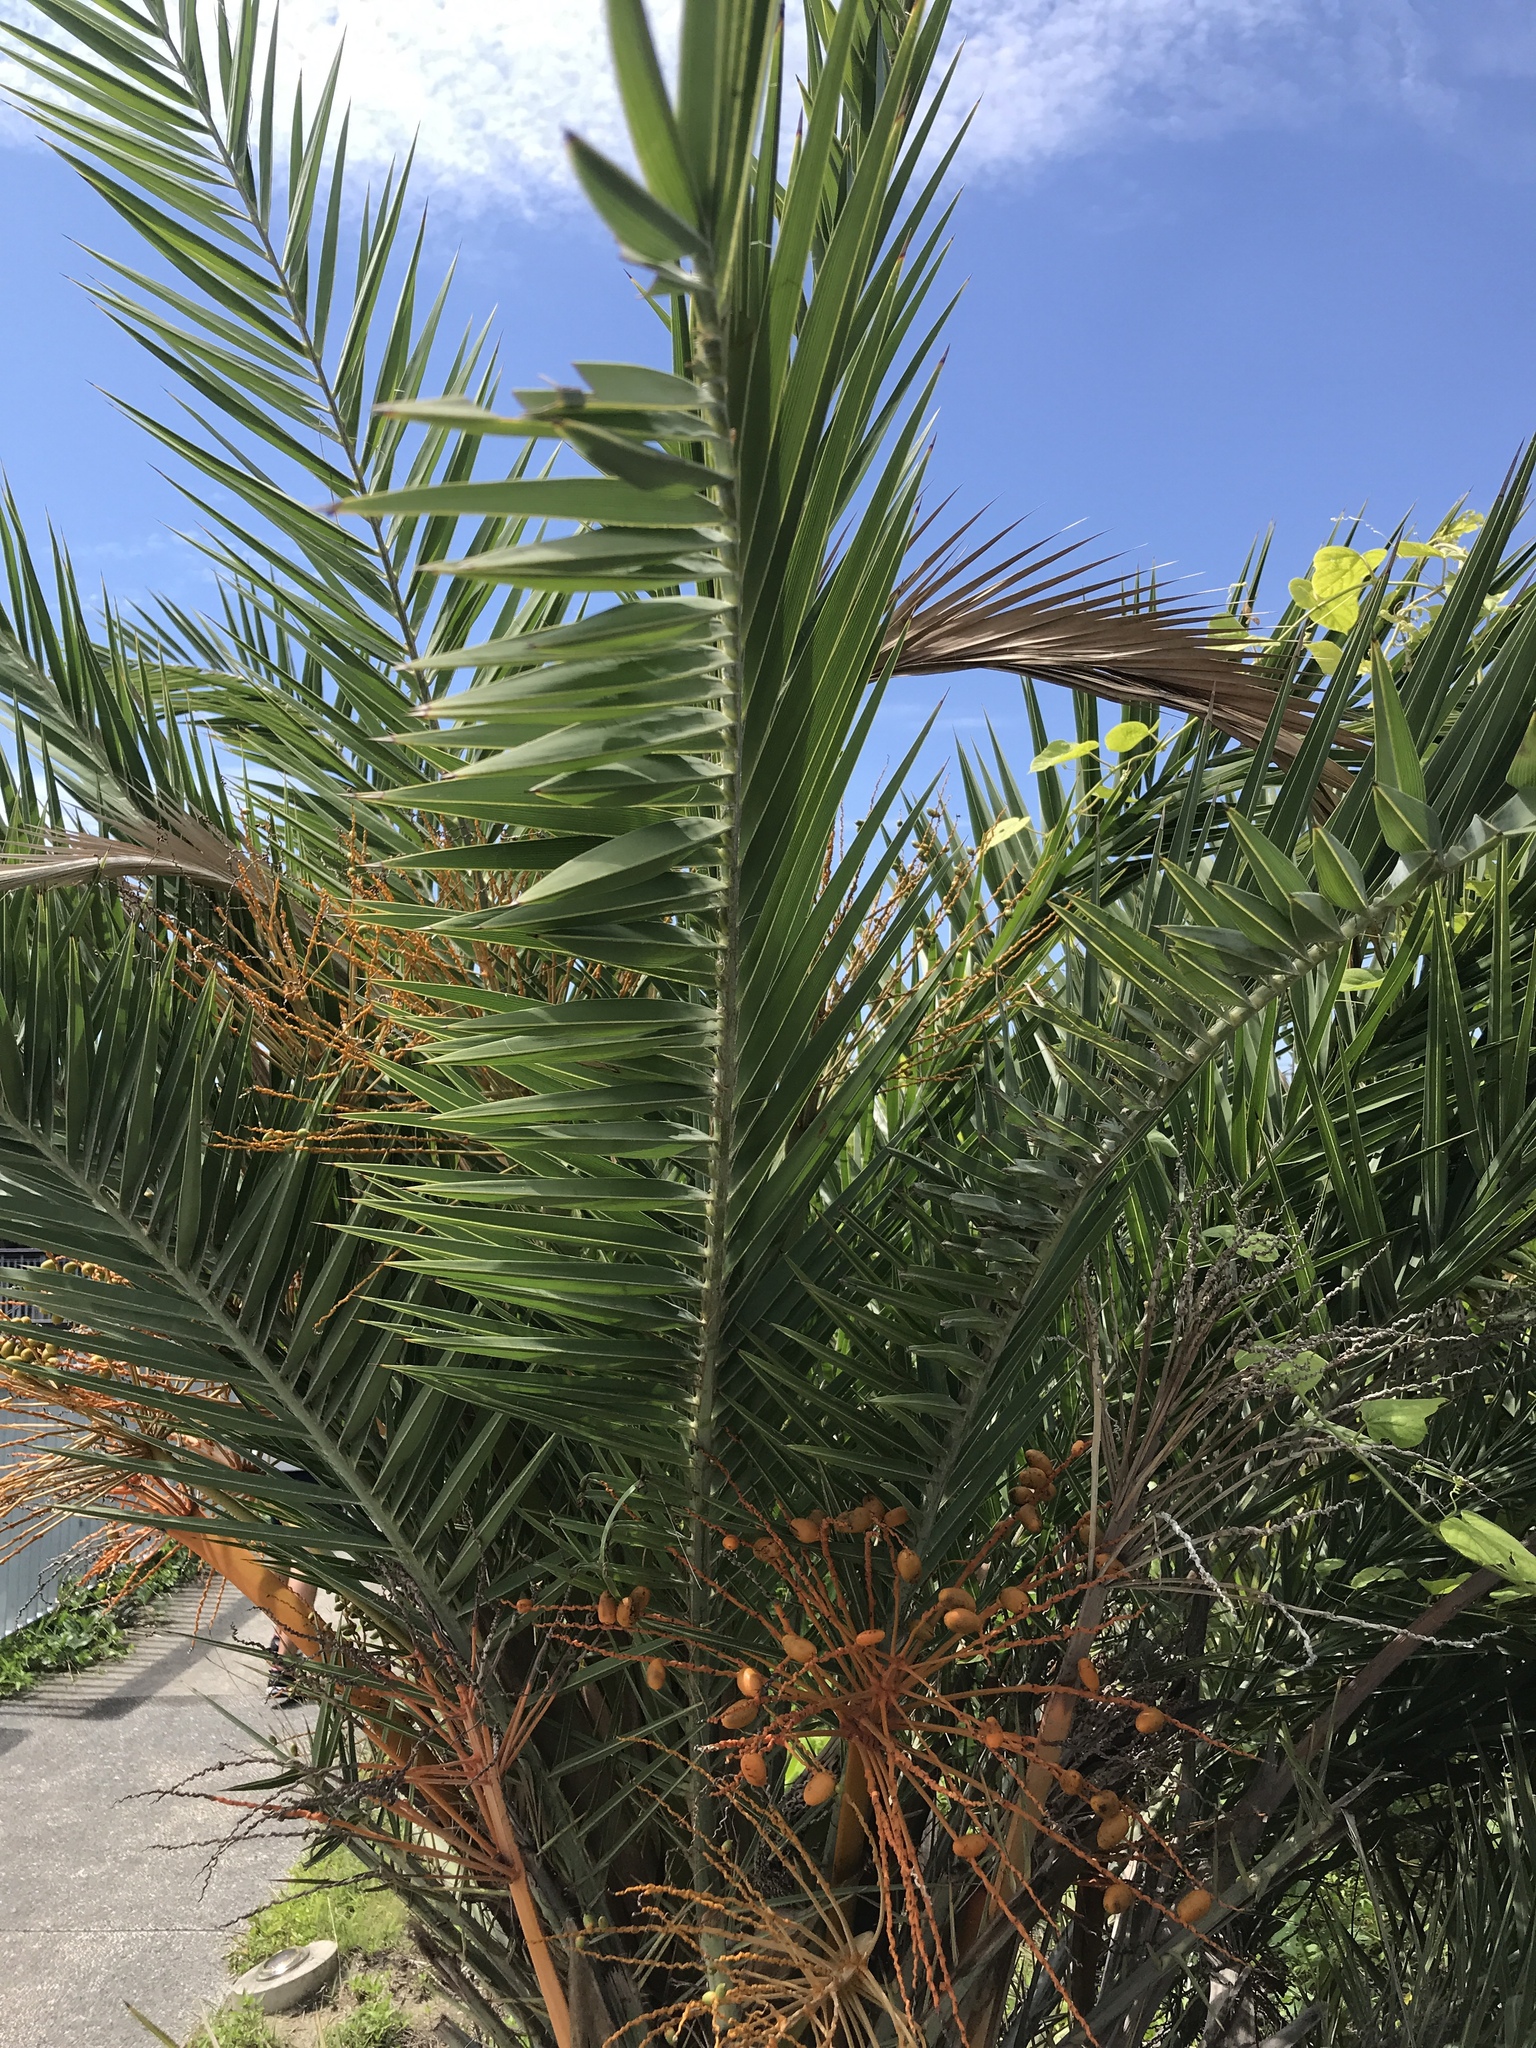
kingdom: Plantae
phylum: Tracheophyta
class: Liliopsida
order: Arecales
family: Arecaceae
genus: Phoenix
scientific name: Phoenix loureiroi
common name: Loureiro's palm
